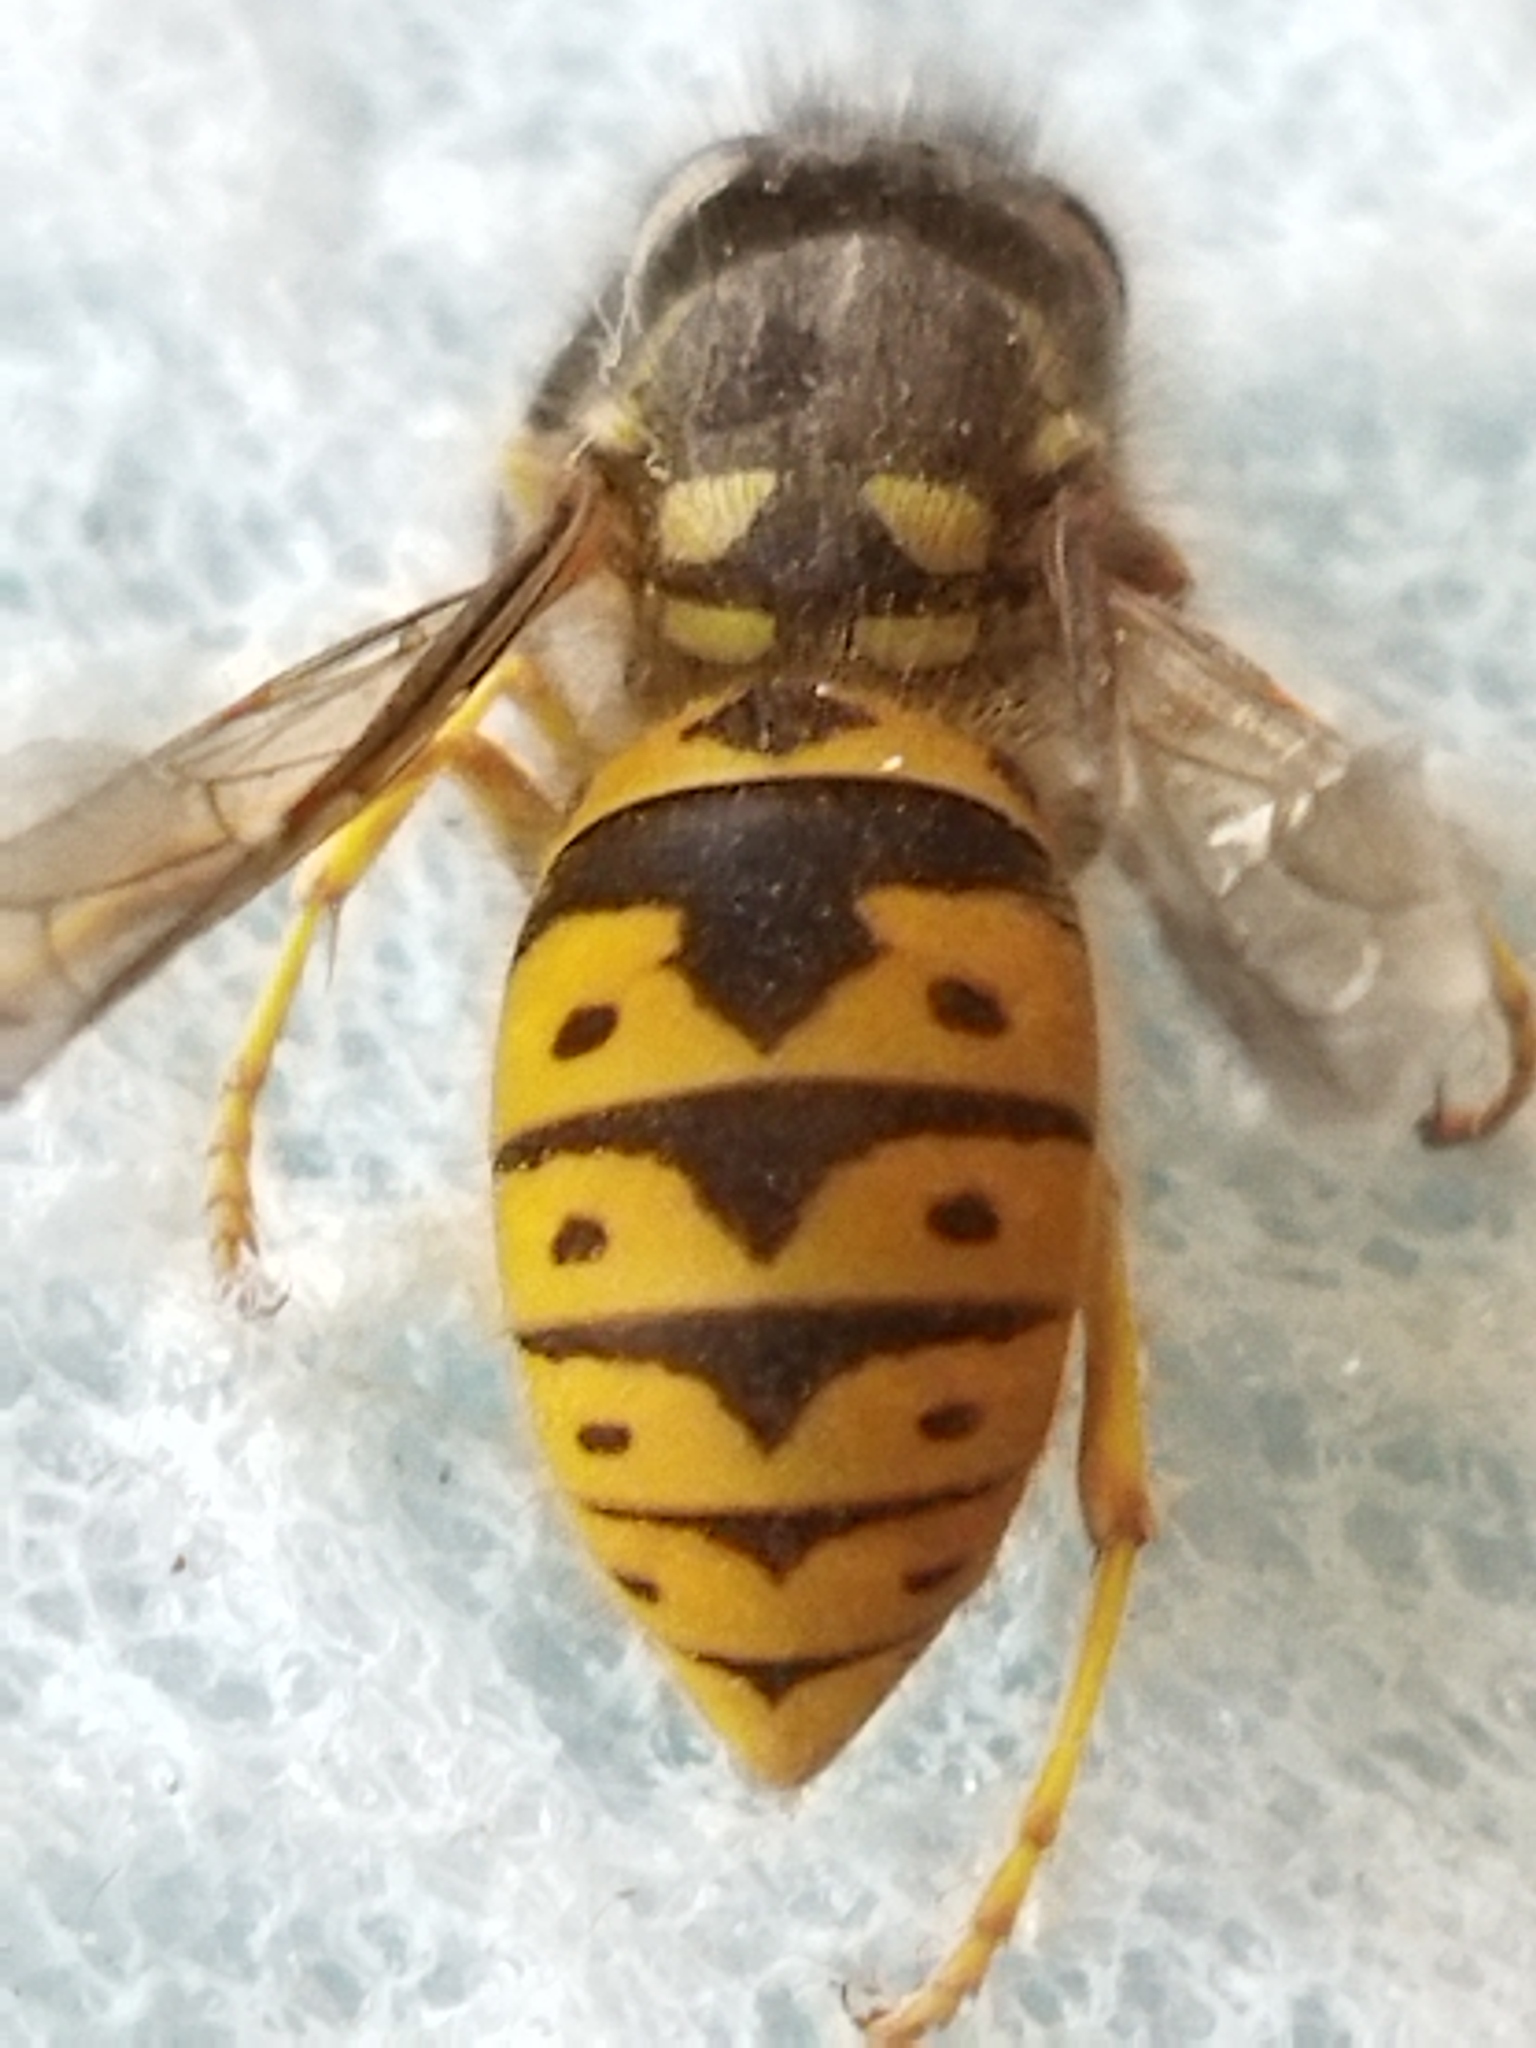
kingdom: Animalia
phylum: Arthropoda
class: Insecta
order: Hymenoptera
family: Vespidae
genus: Vespula
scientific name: Vespula germanica
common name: German wasp
